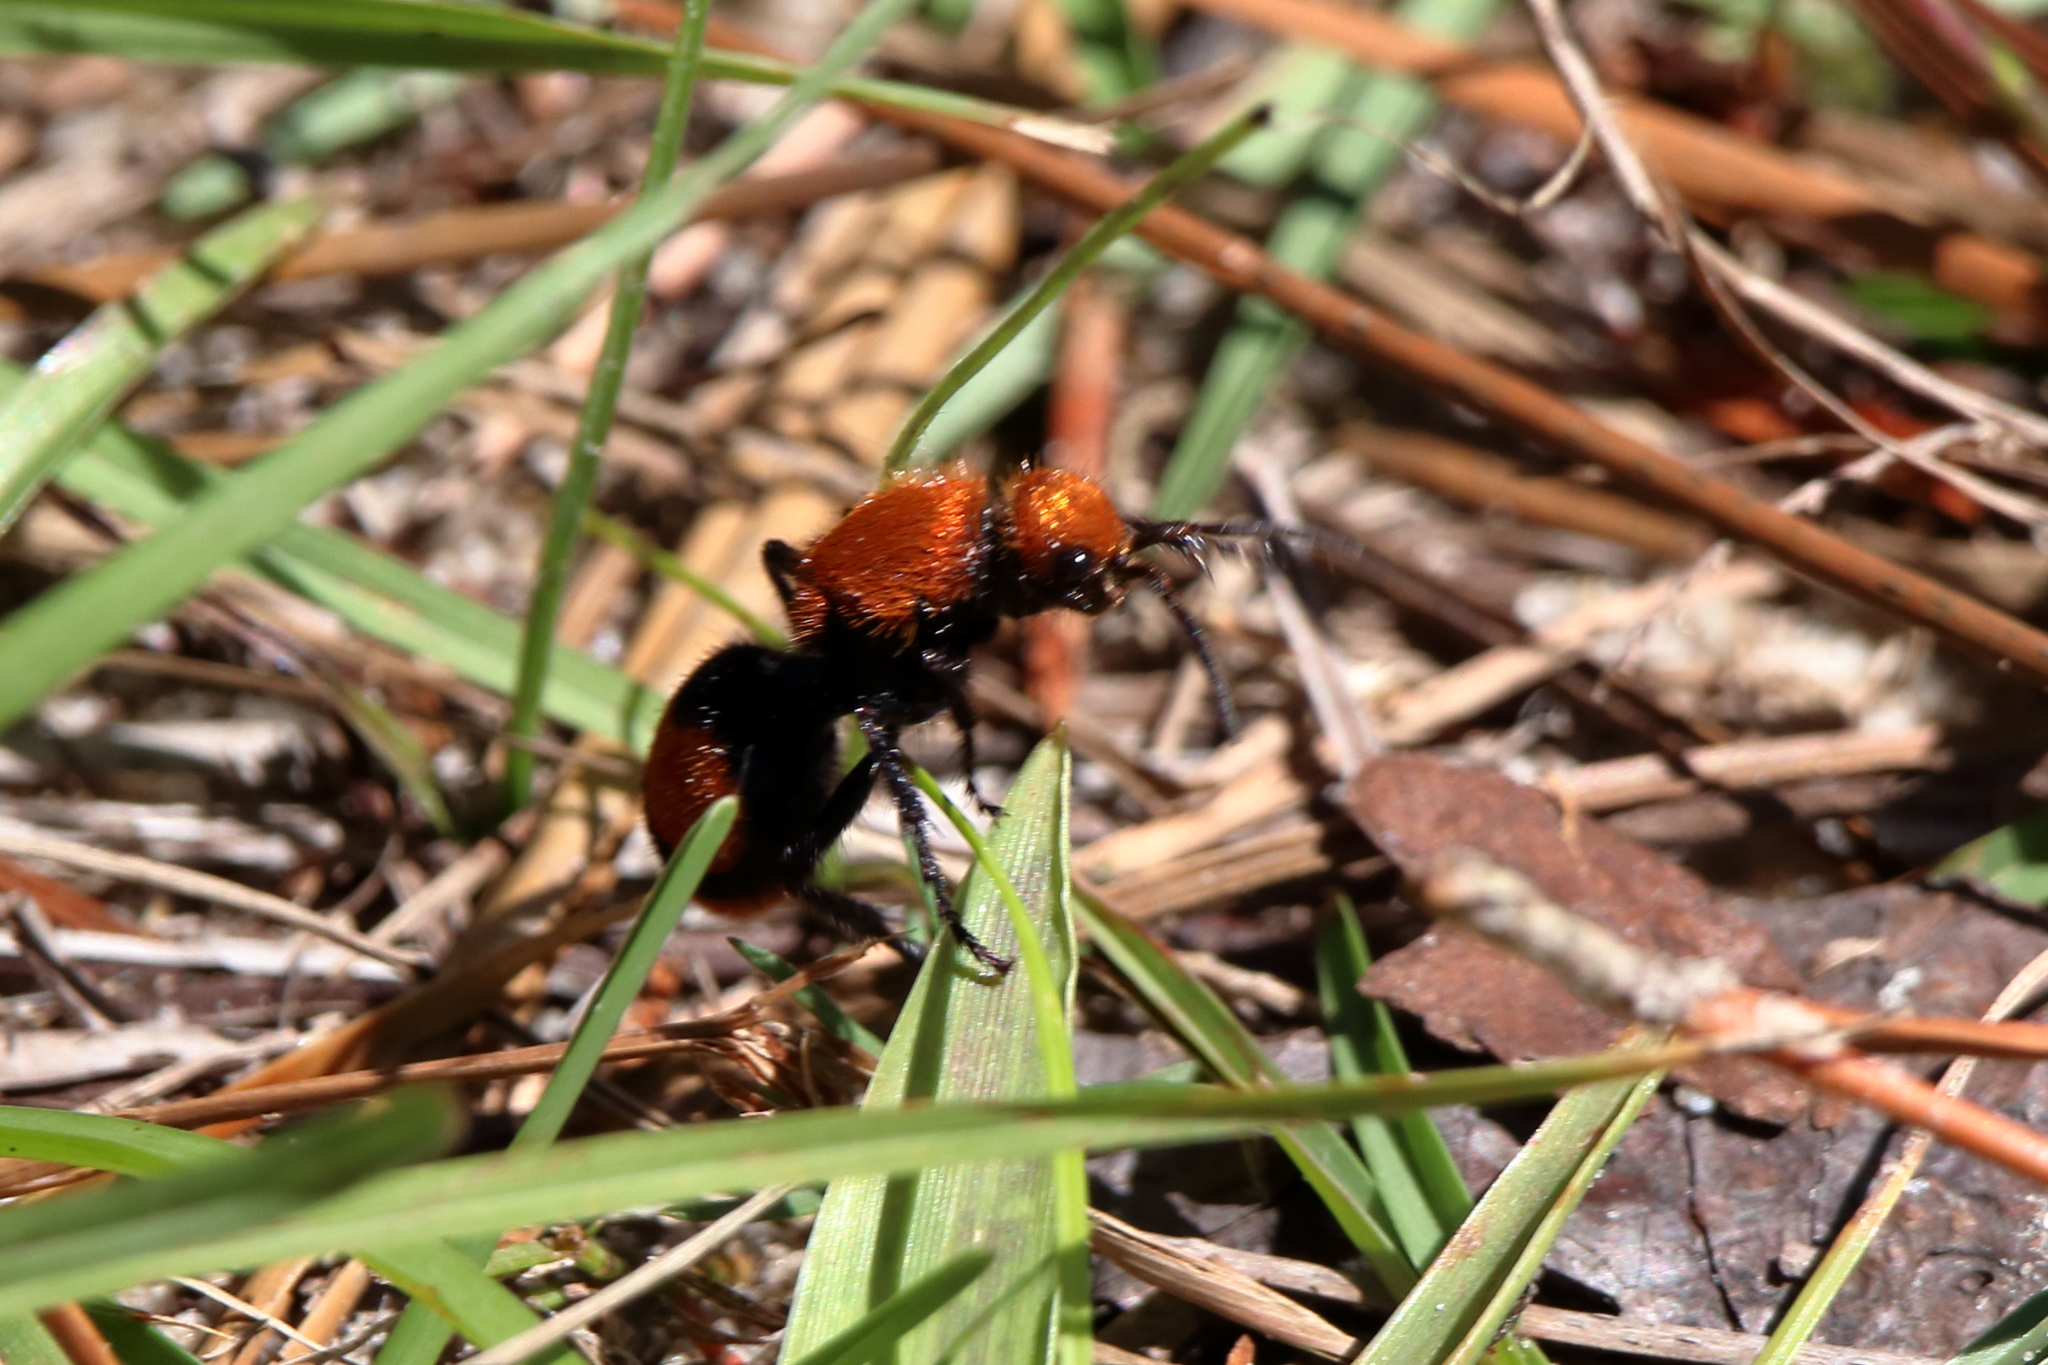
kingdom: Animalia
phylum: Arthropoda
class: Insecta
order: Hymenoptera
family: Mutillidae
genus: Dasymutilla
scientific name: Dasymutilla occidentalis
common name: Common eastern velvet ant
